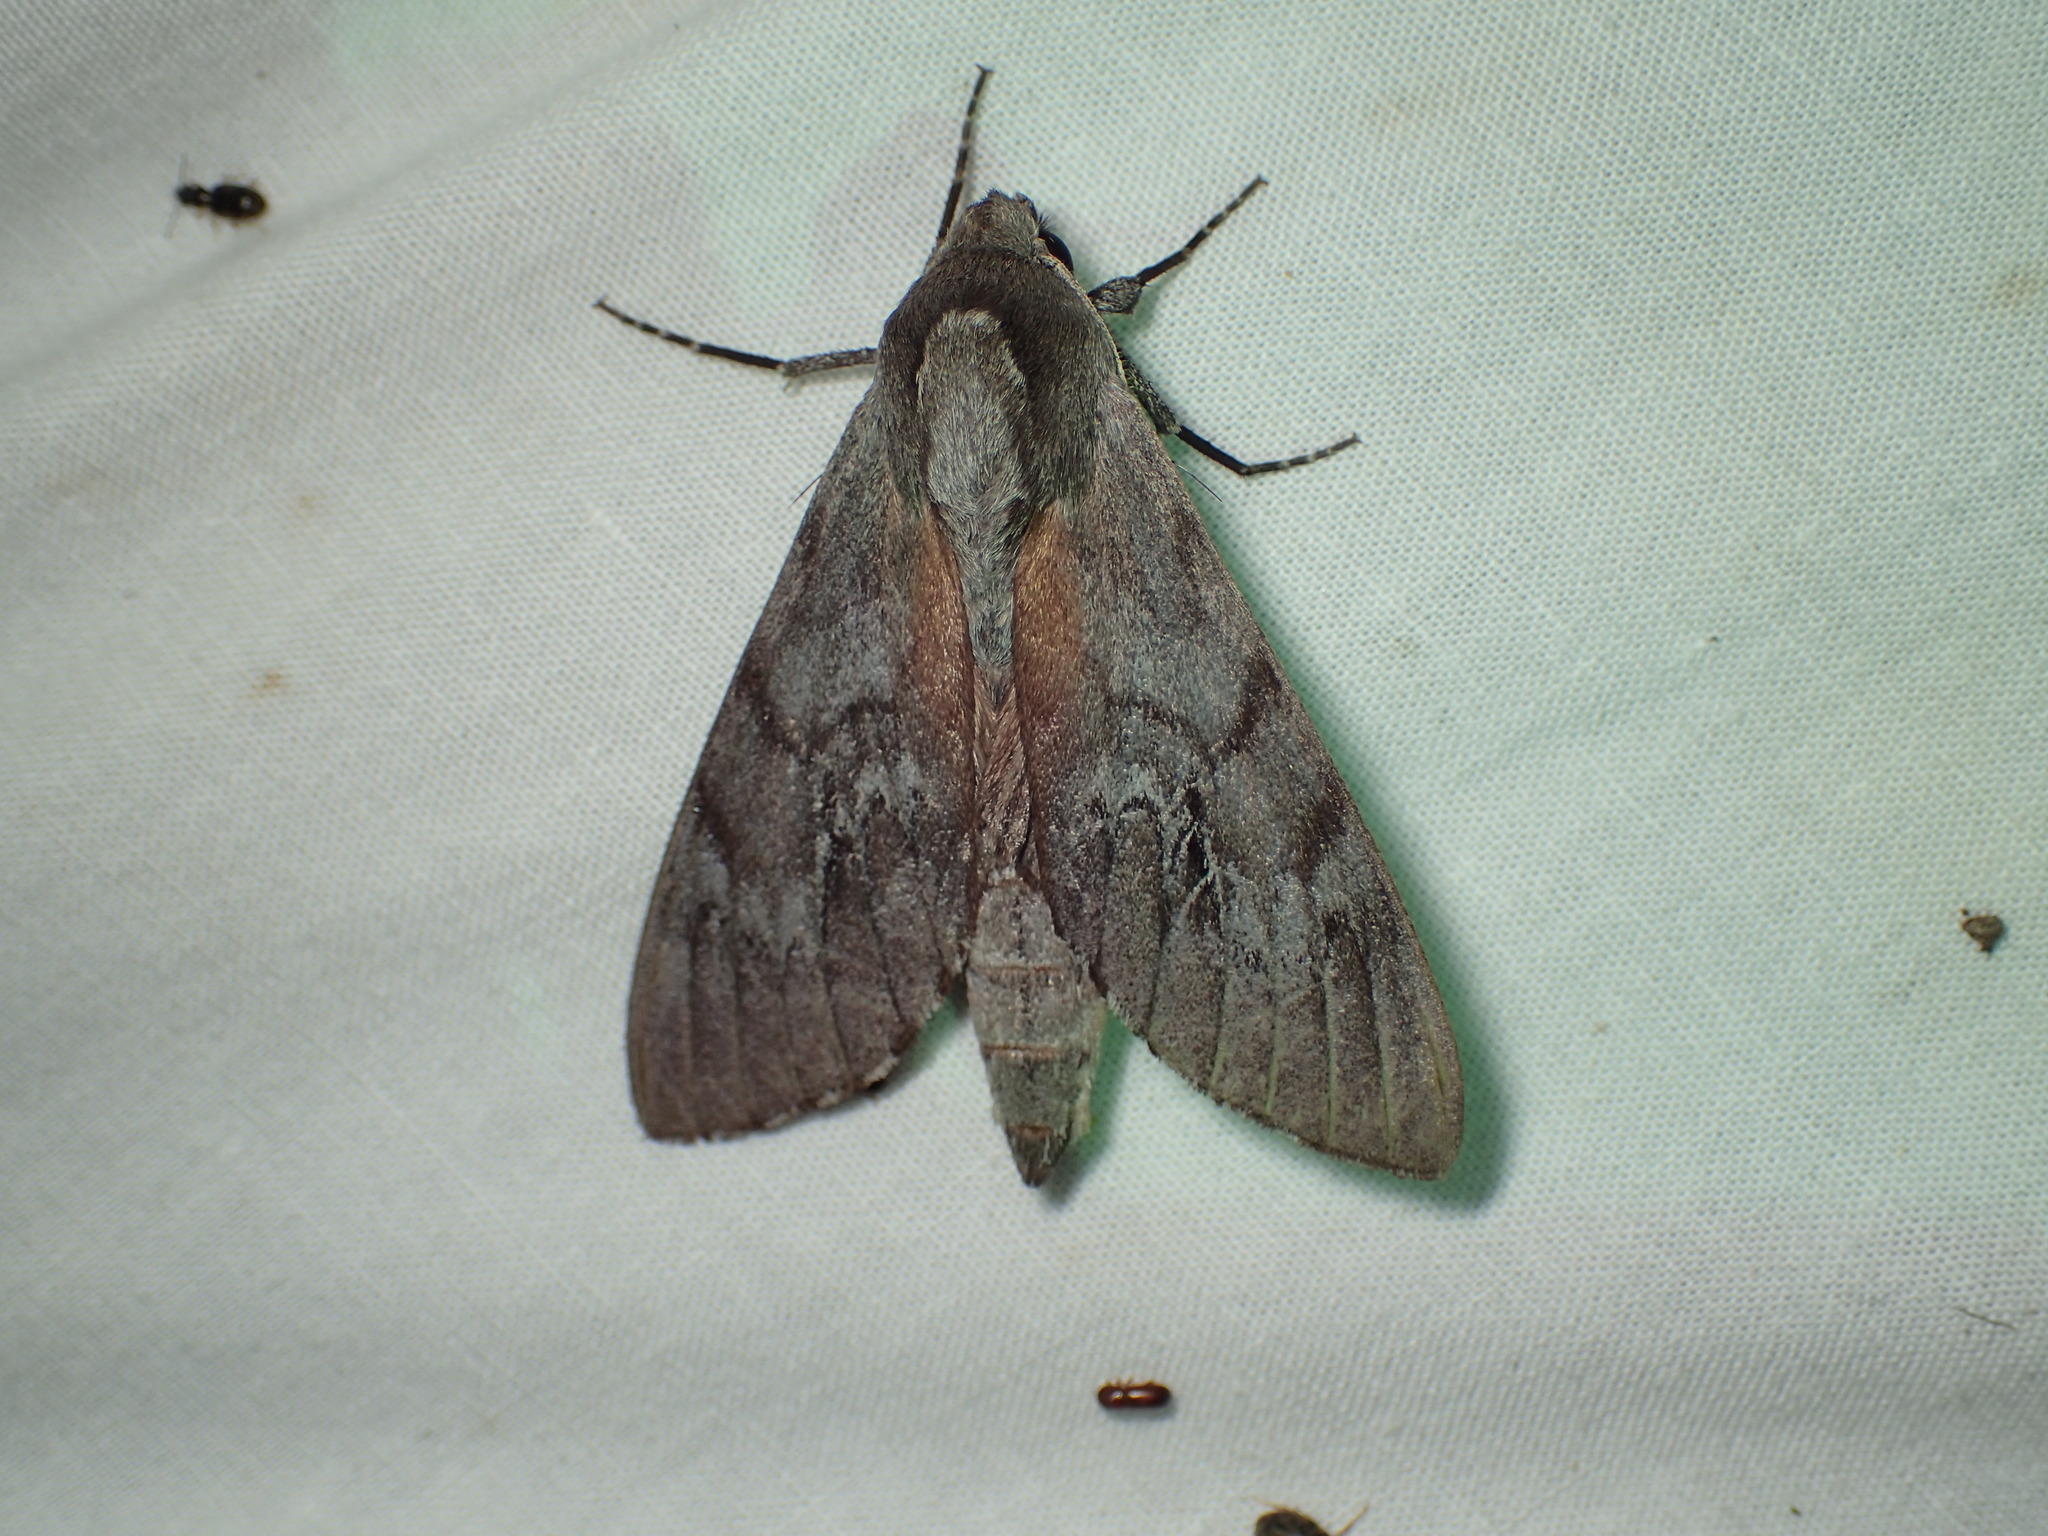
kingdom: Animalia
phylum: Arthropoda
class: Insecta
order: Lepidoptera
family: Sphingidae
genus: Lapara
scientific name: Lapara coniferarum
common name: Southern pine sphinx
